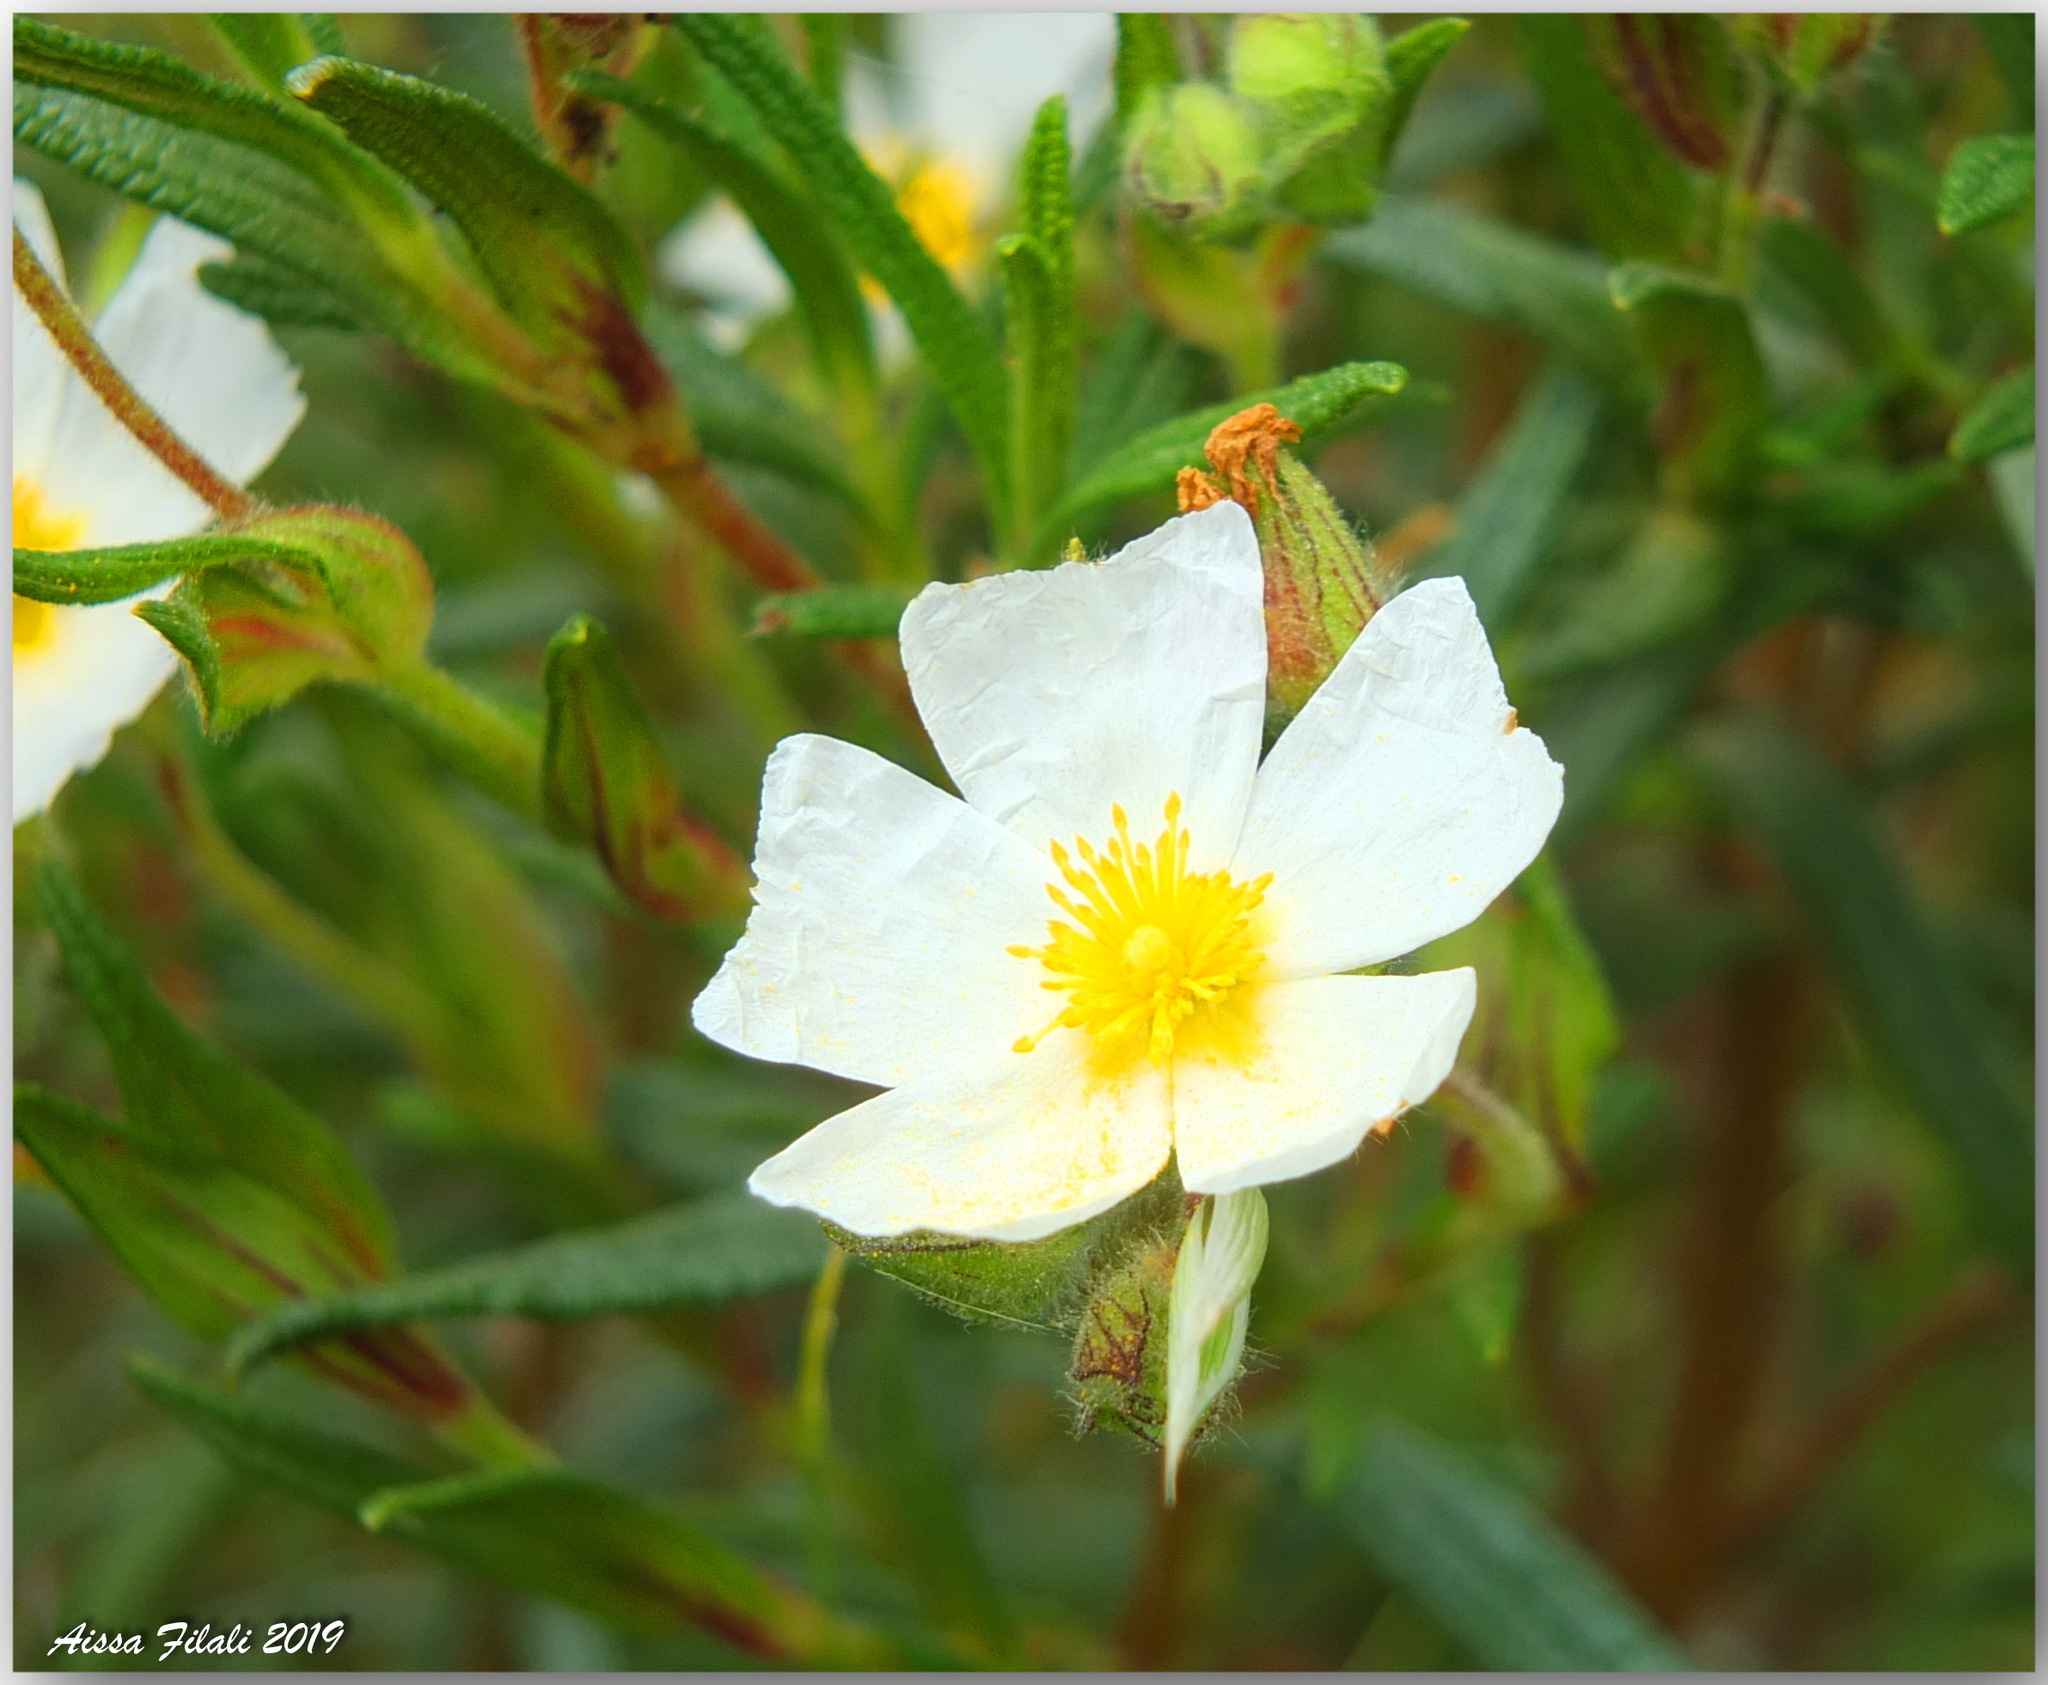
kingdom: Plantae
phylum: Tracheophyta
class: Magnoliopsida
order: Malvales
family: Cistaceae
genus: Cistus
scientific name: Cistus monspeliensis
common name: Montpelier cistus
